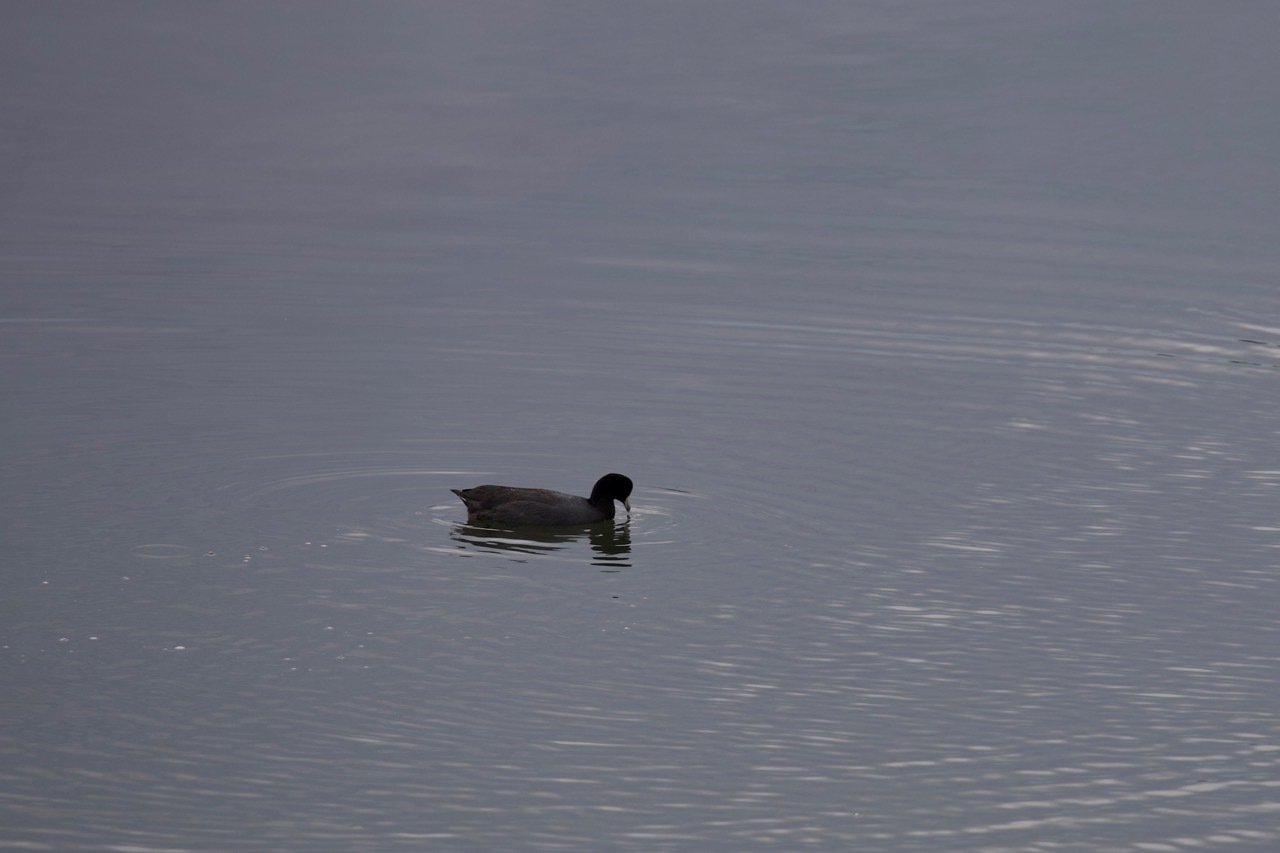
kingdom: Animalia
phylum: Chordata
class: Aves
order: Gruiformes
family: Rallidae
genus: Fulica
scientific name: Fulica americana
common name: American coot
